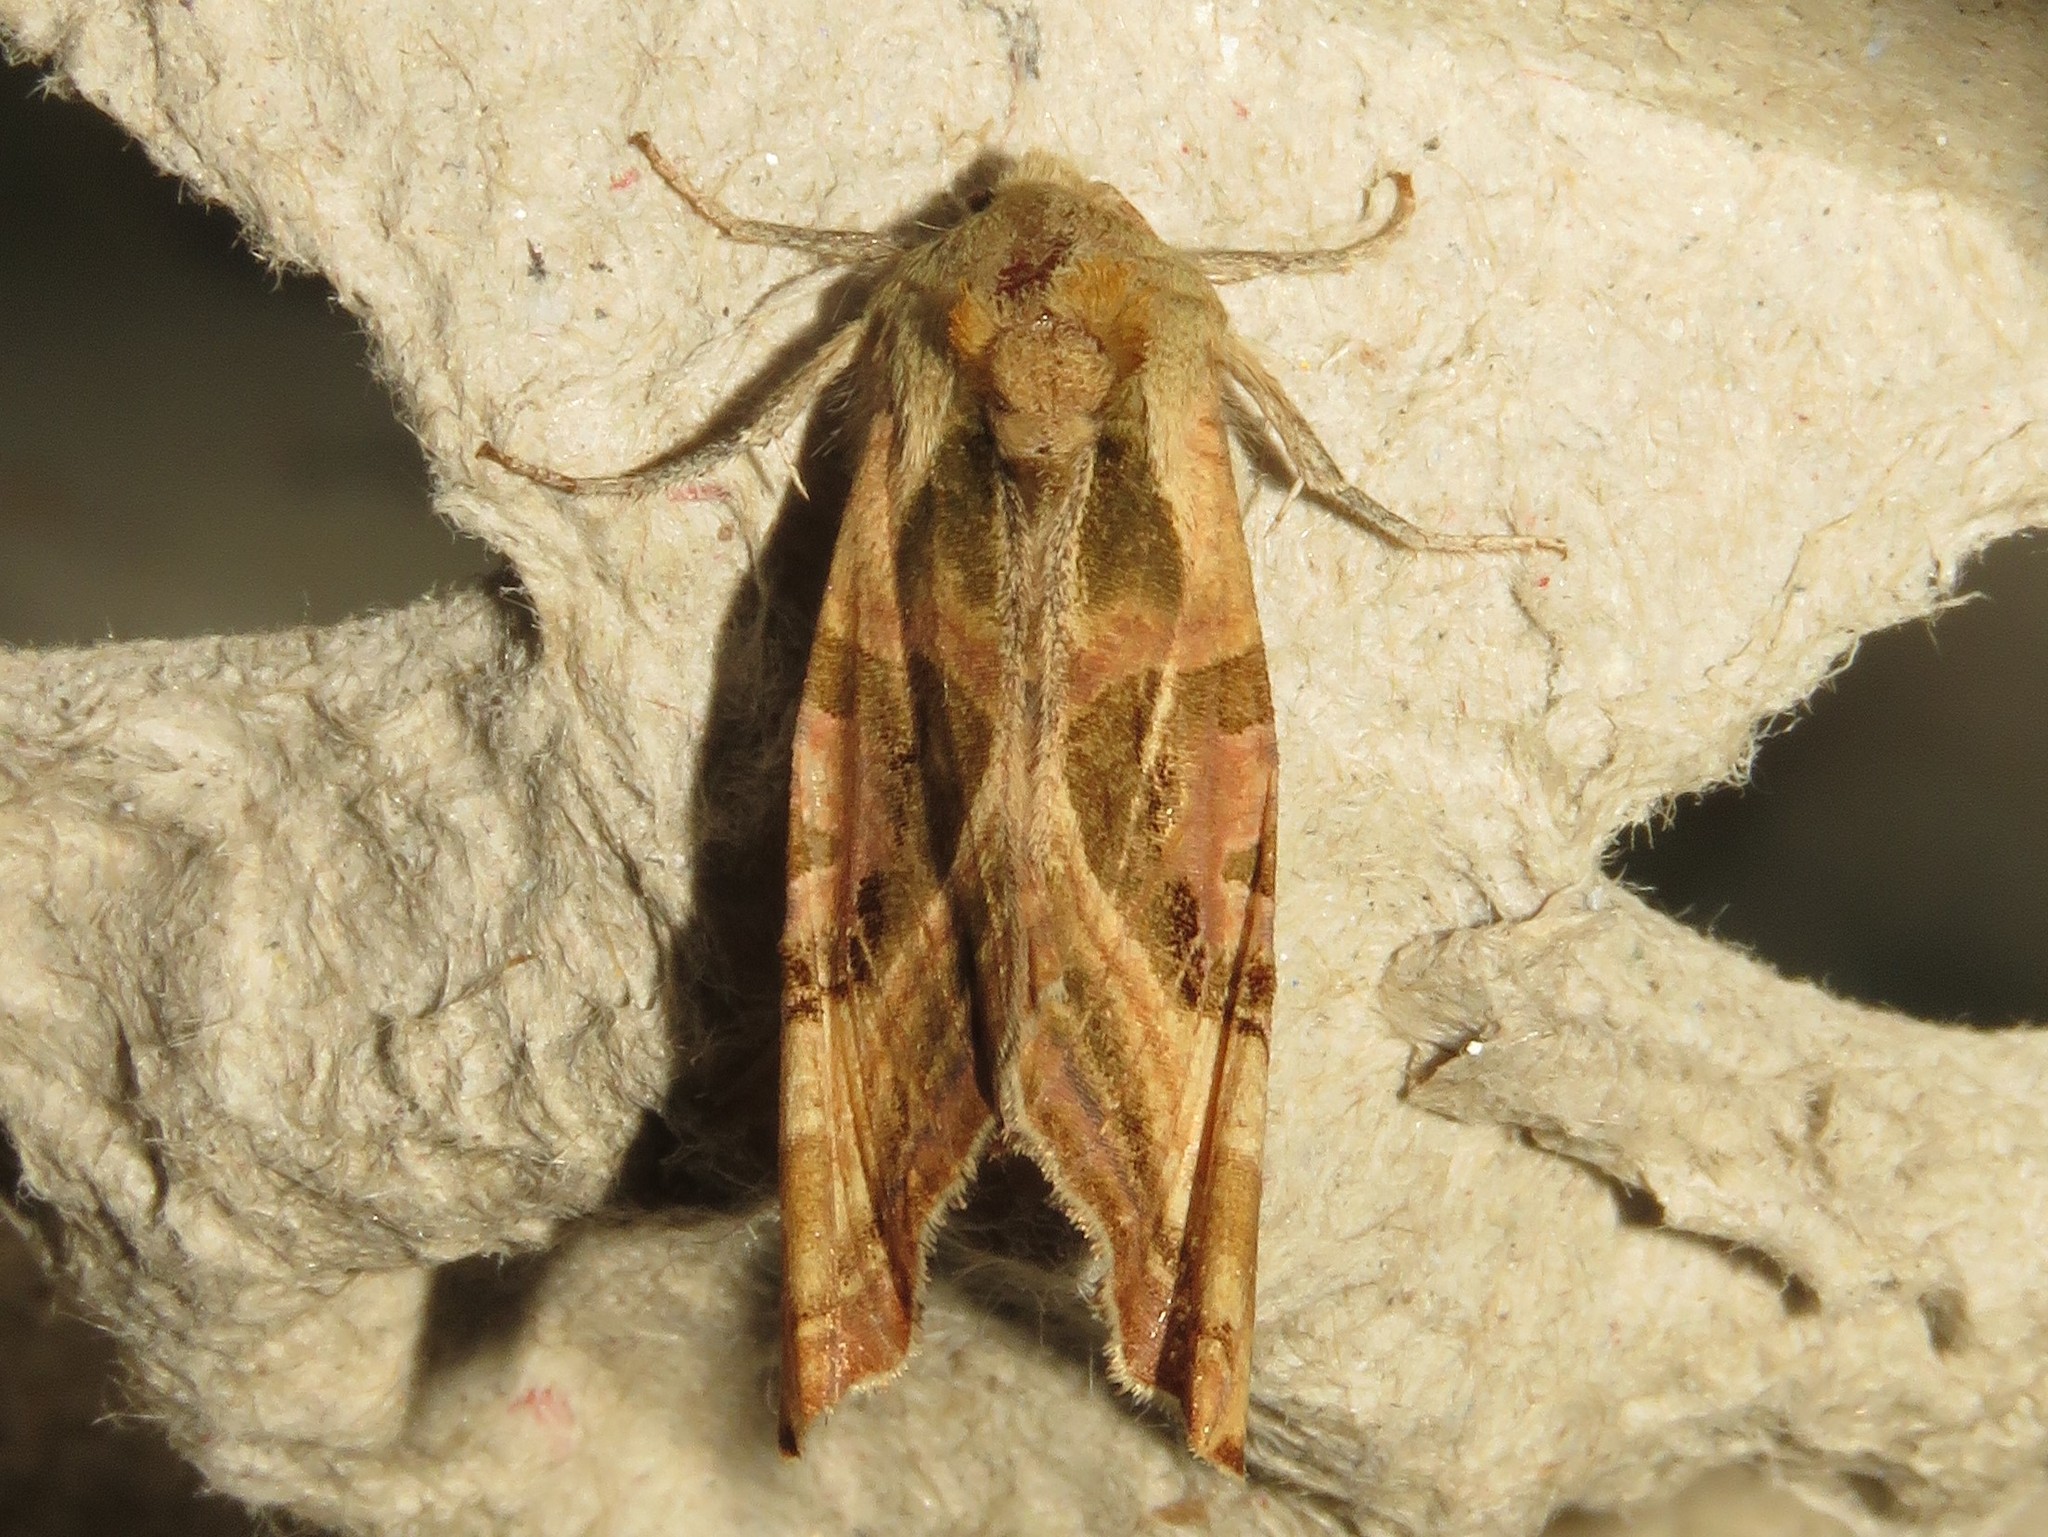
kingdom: Animalia
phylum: Arthropoda
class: Insecta
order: Lepidoptera
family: Noctuidae
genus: Phlogophora
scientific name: Phlogophora iris
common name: Olive angle shades
